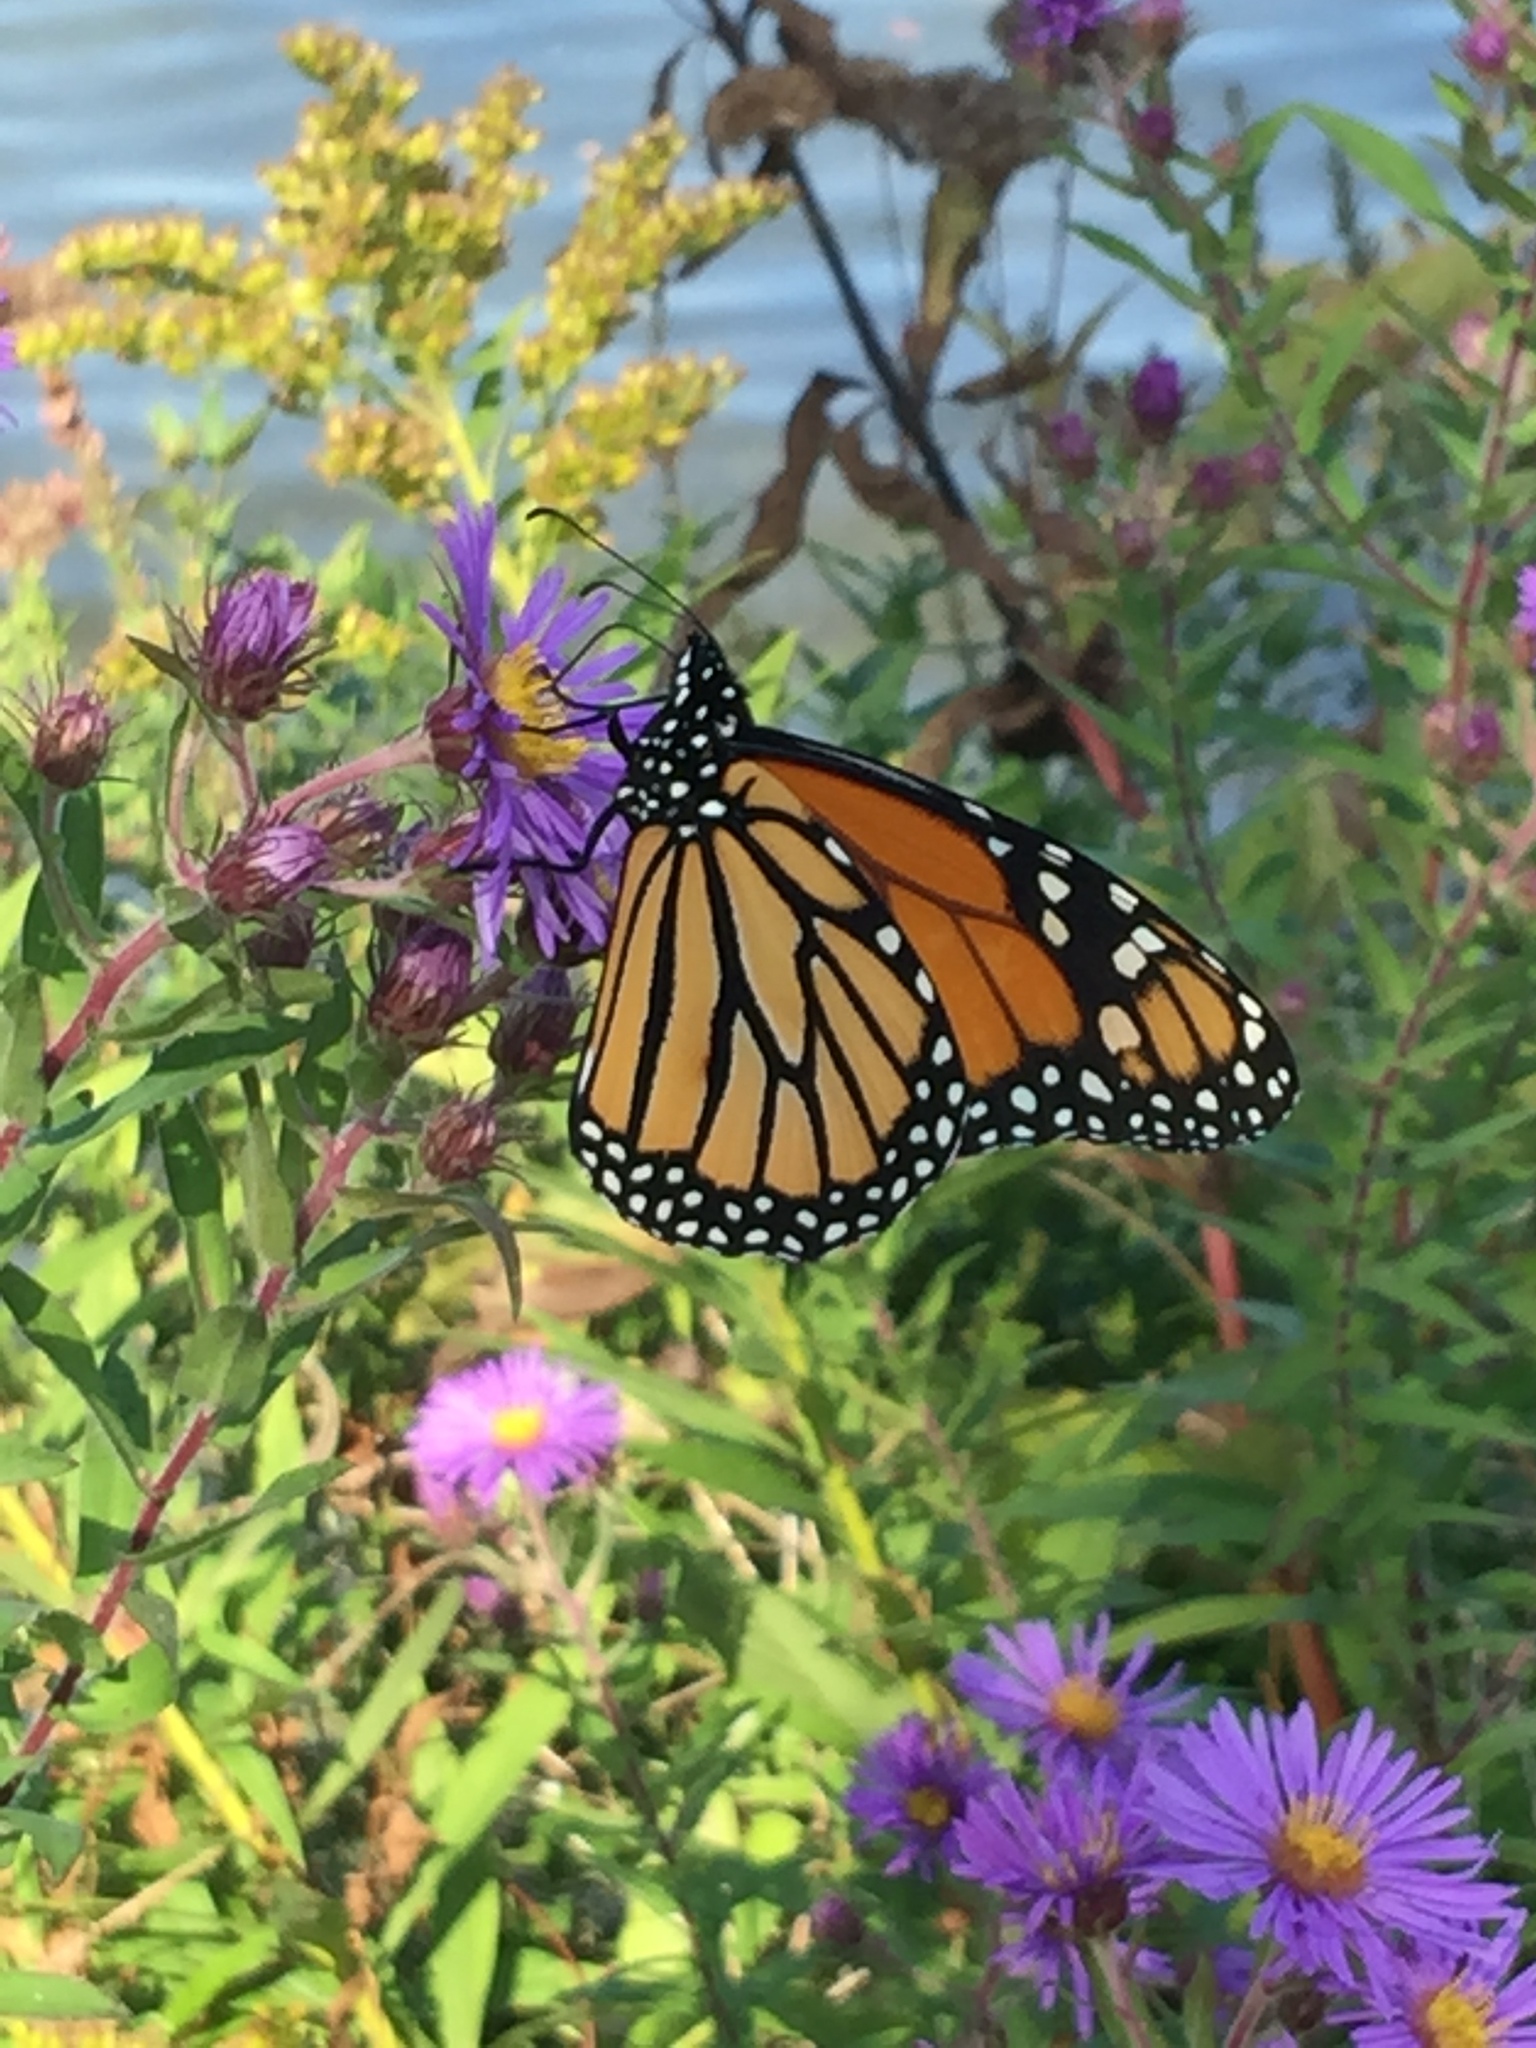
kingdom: Animalia
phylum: Arthropoda
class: Insecta
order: Lepidoptera
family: Nymphalidae
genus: Danaus
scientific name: Danaus plexippus
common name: Monarch
